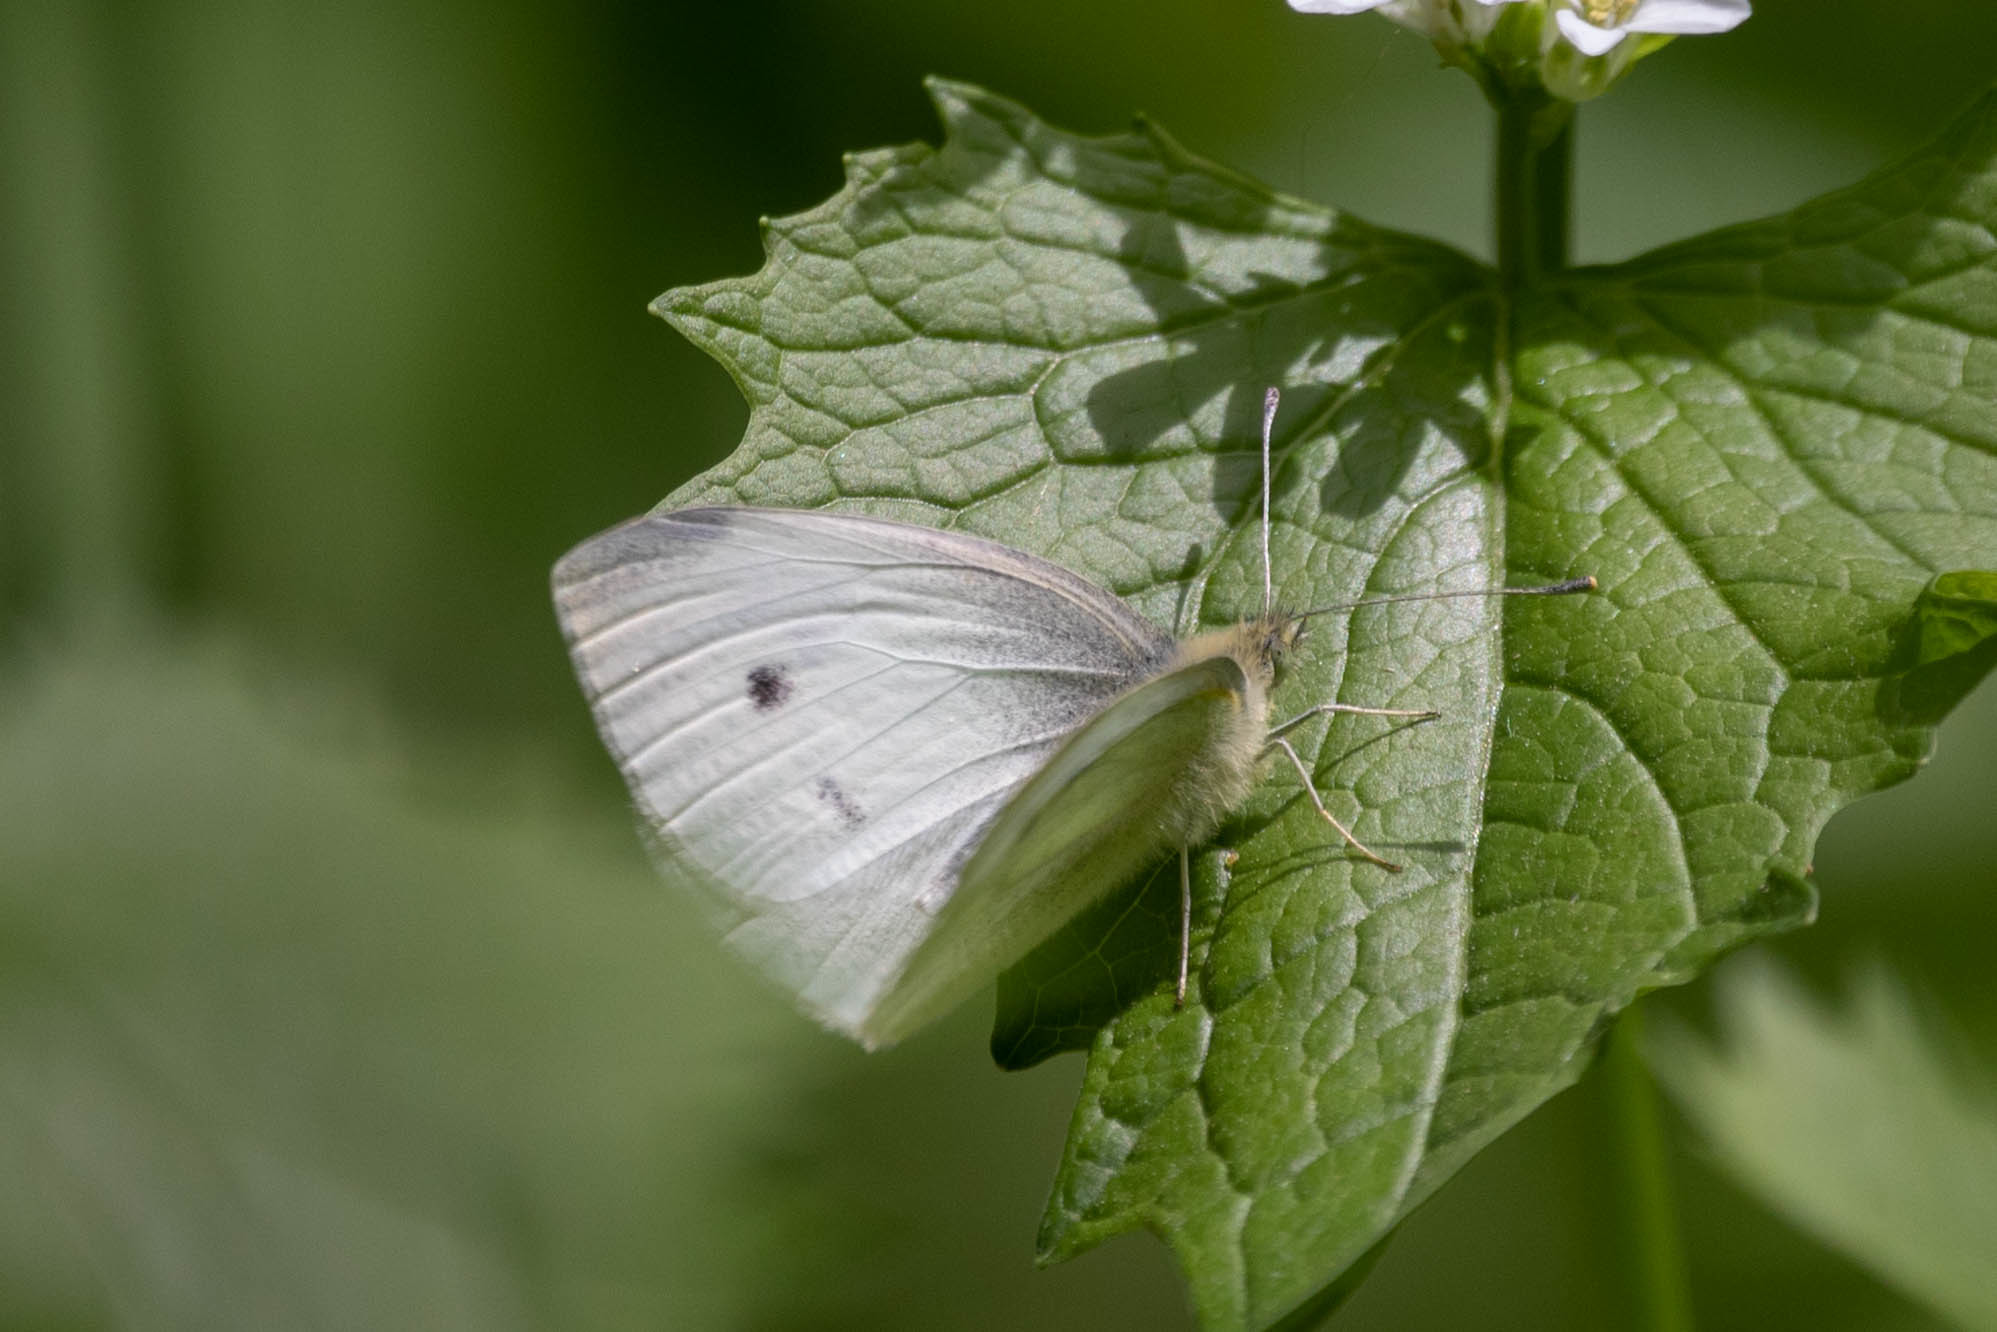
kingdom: Animalia
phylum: Arthropoda
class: Insecta
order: Lepidoptera
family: Pieridae
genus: Pieris
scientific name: Pieris rapae
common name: Small white
